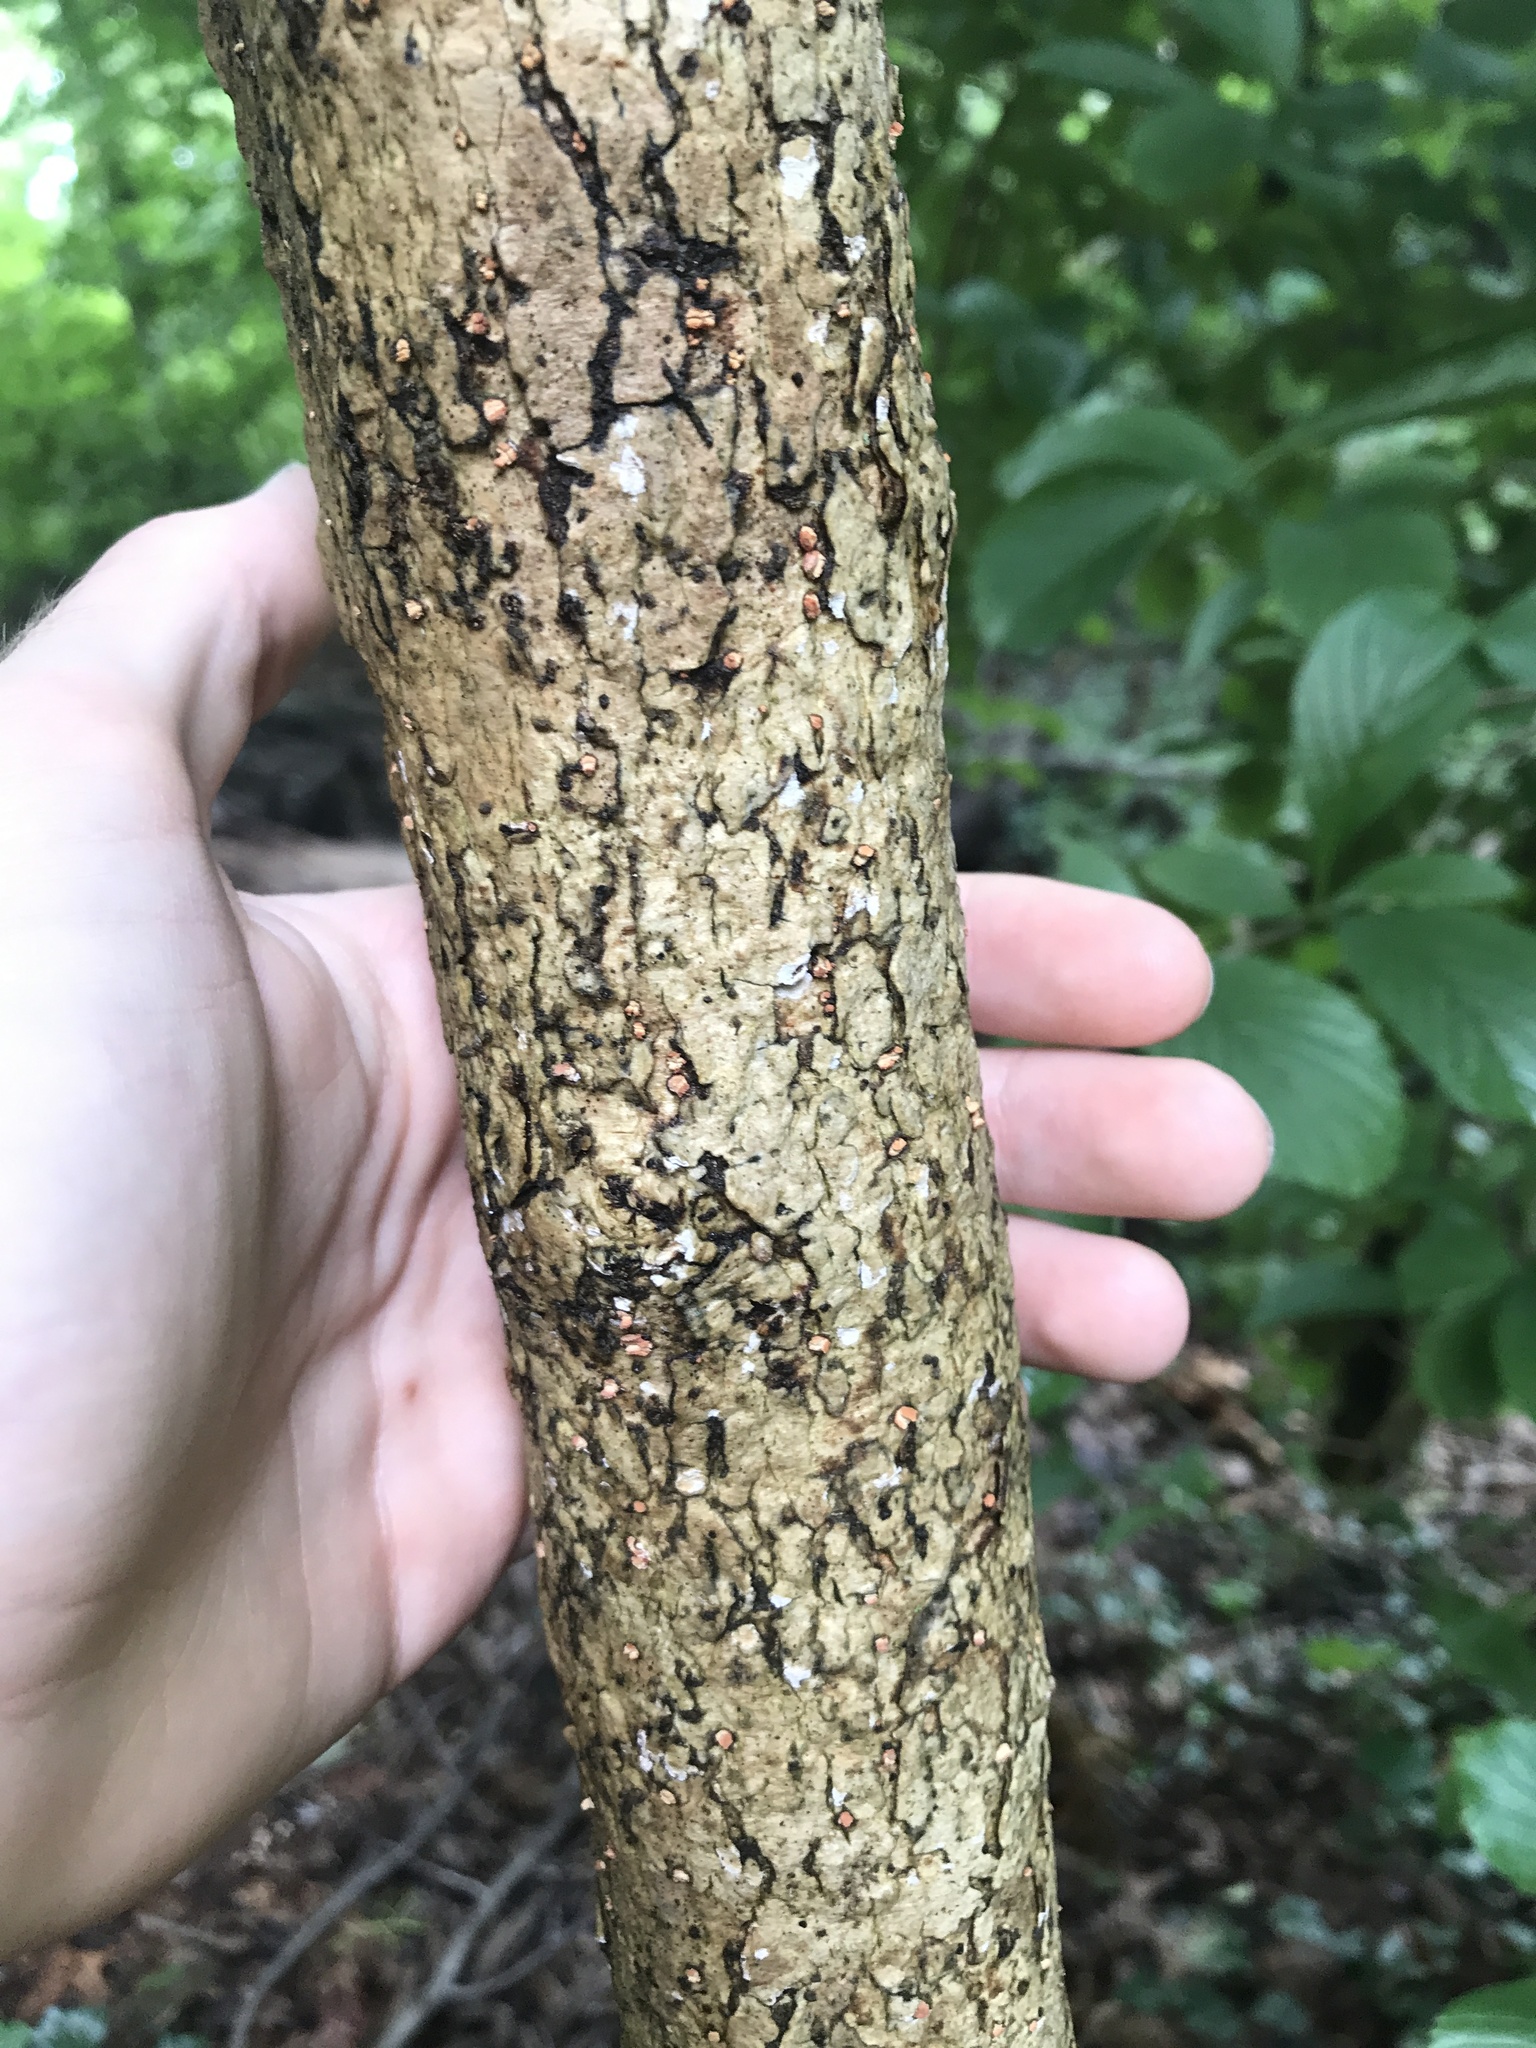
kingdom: Plantae
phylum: Tracheophyta
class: Magnoliopsida
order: Dipsacales
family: Viburnaceae
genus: Viburnum
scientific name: Viburnum sieboldii
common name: Siebold's arrowwood
